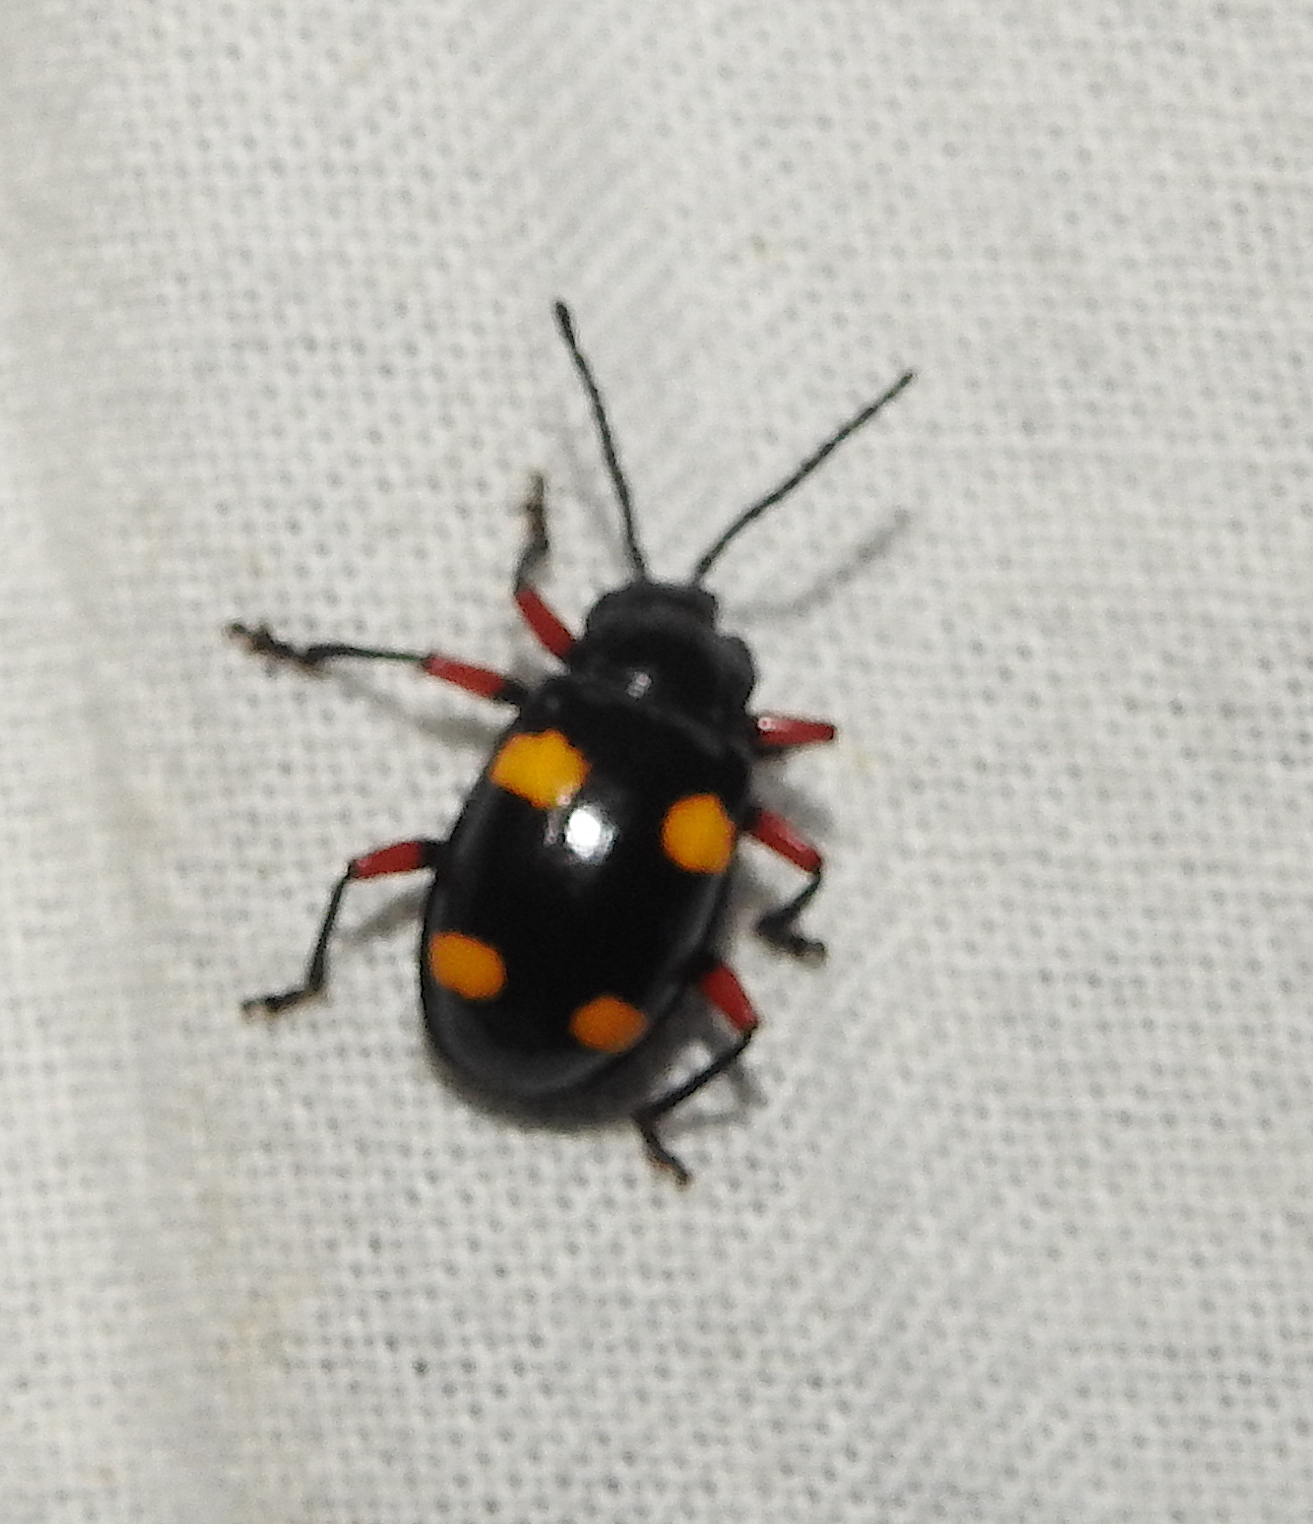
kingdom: Animalia
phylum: Arthropoda
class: Insecta
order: Coleoptera
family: Endomychidae
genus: Eumorphus
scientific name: Eumorphus quadriguttatus
